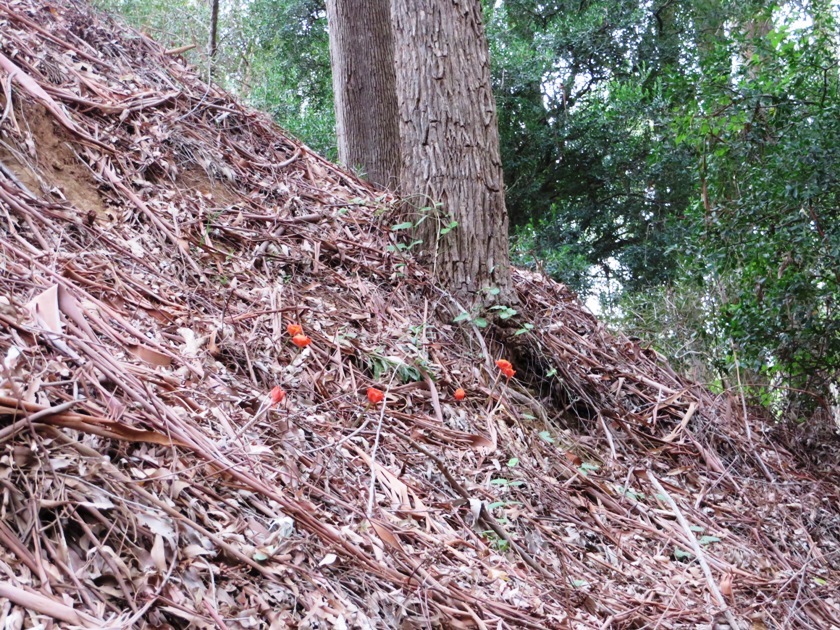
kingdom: Plantae
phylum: Tracheophyta
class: Liliopsida
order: Asparagales
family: Amaryllidaceae
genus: Haemanthus
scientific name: Haemanthus coccineus
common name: Cape-tulip
